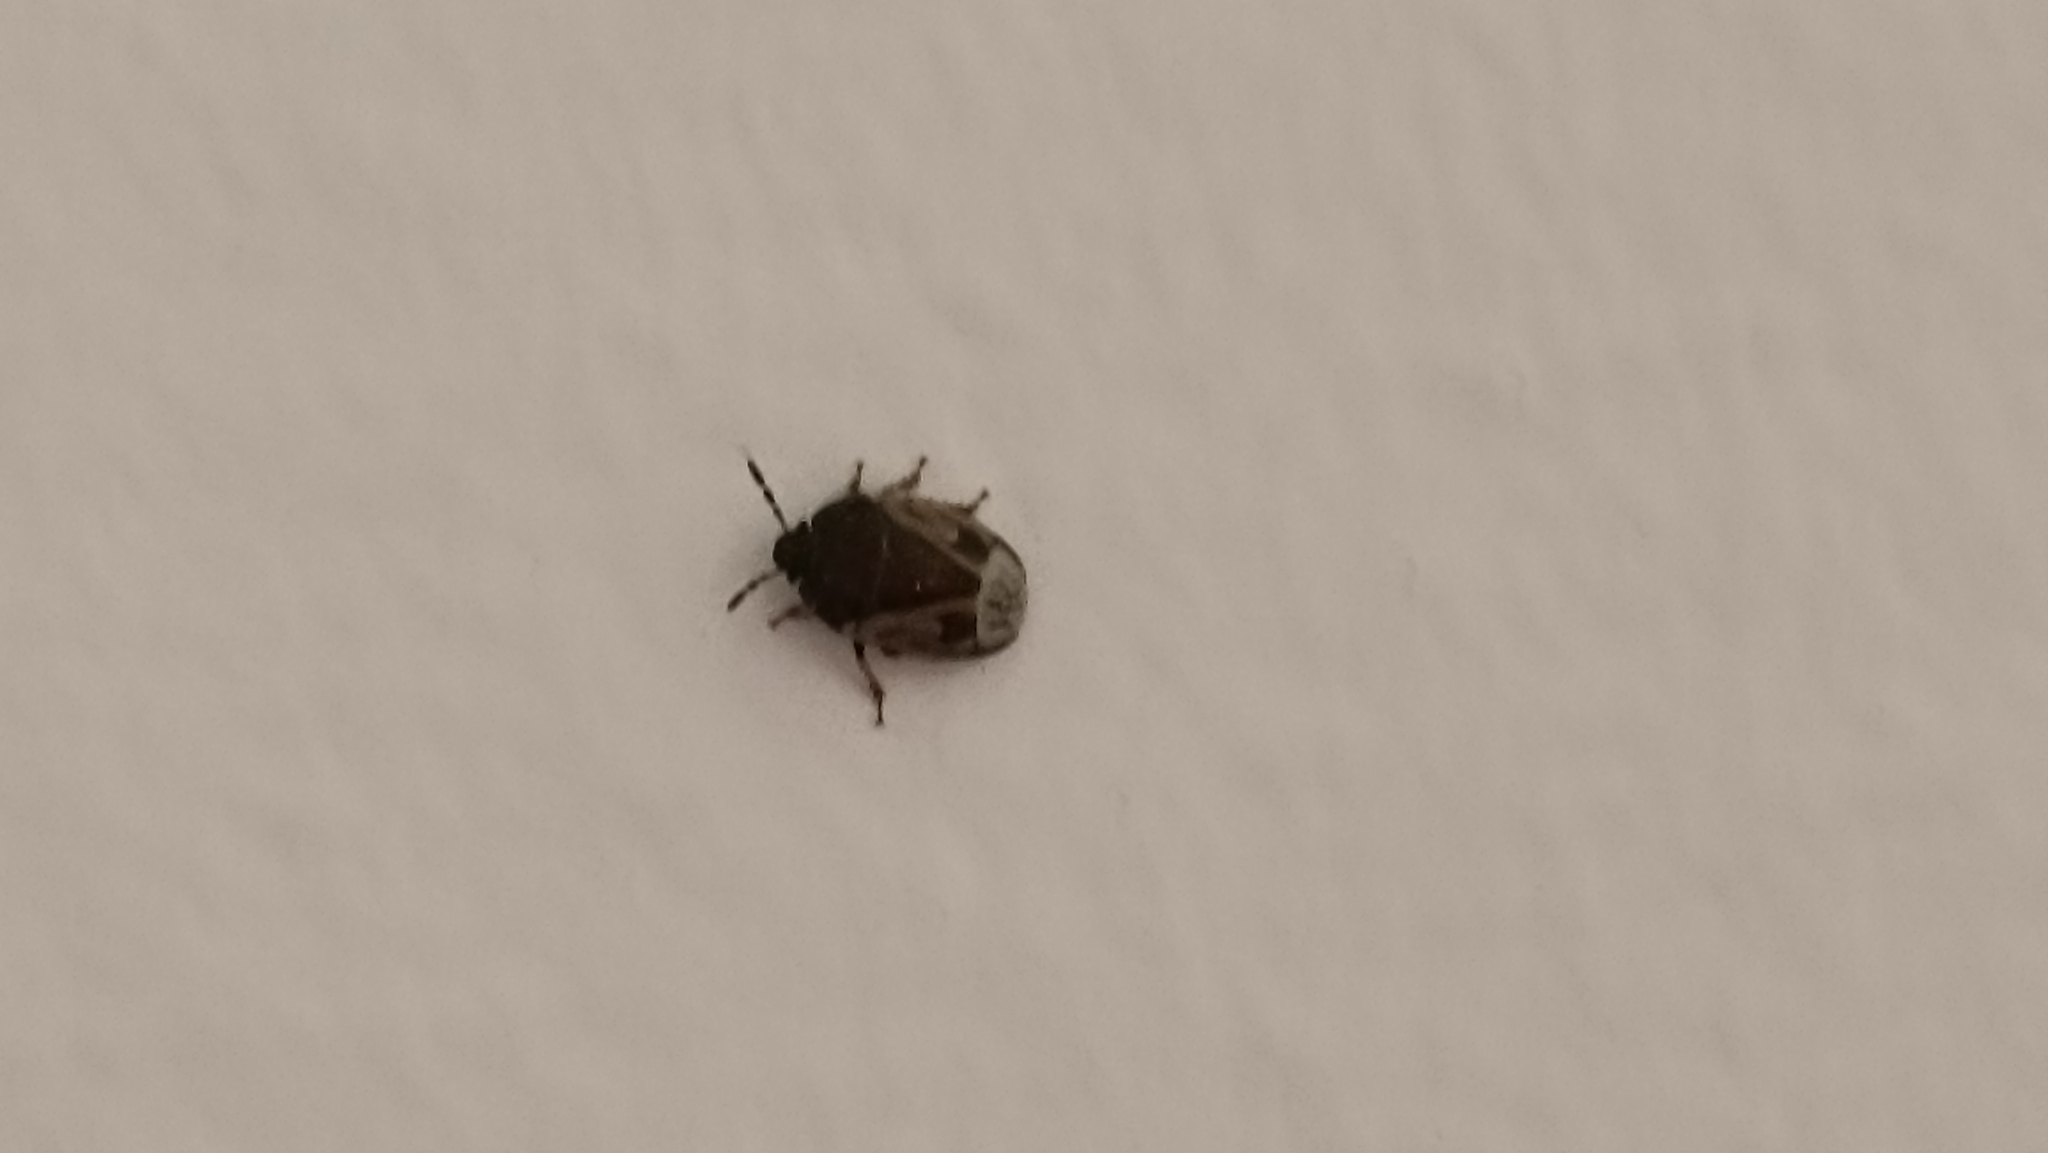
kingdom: Animalia
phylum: Arthropoda
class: Insecta
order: Hemiptera
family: Cydnidae
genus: Crocistethus
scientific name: Crocistethus waltlianus
